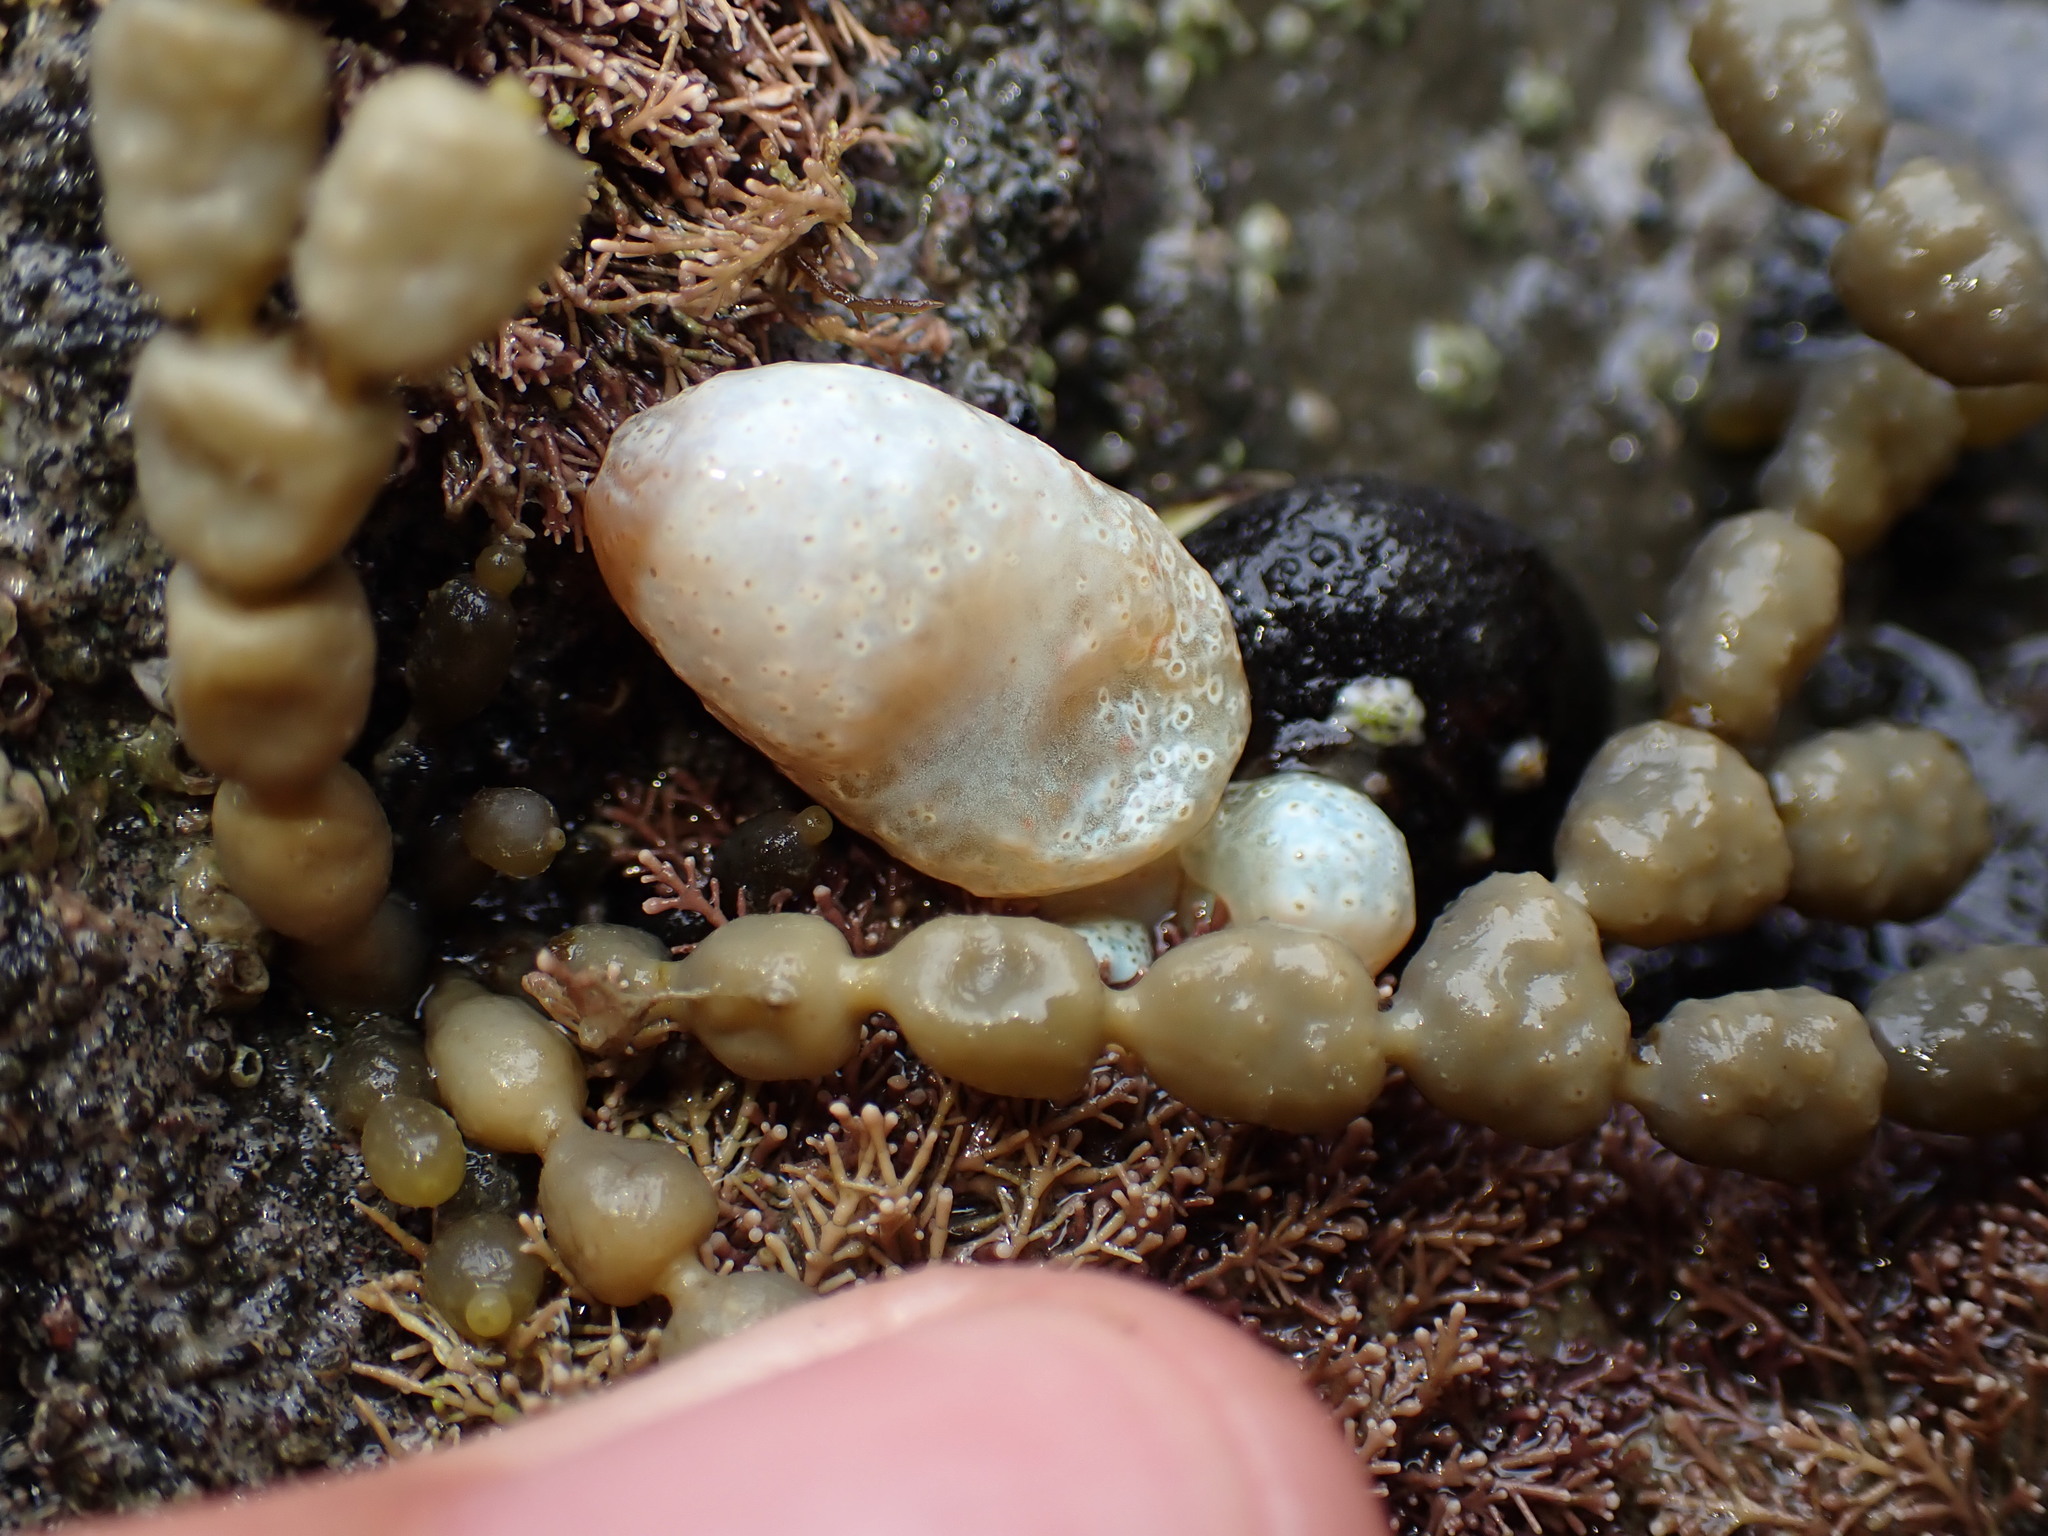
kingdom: Animalia
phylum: Chordata
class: Ascidiacea
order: Aplousobranchia
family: Polycitoridae
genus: Eudistoma
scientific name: Eudistoma elongatum
